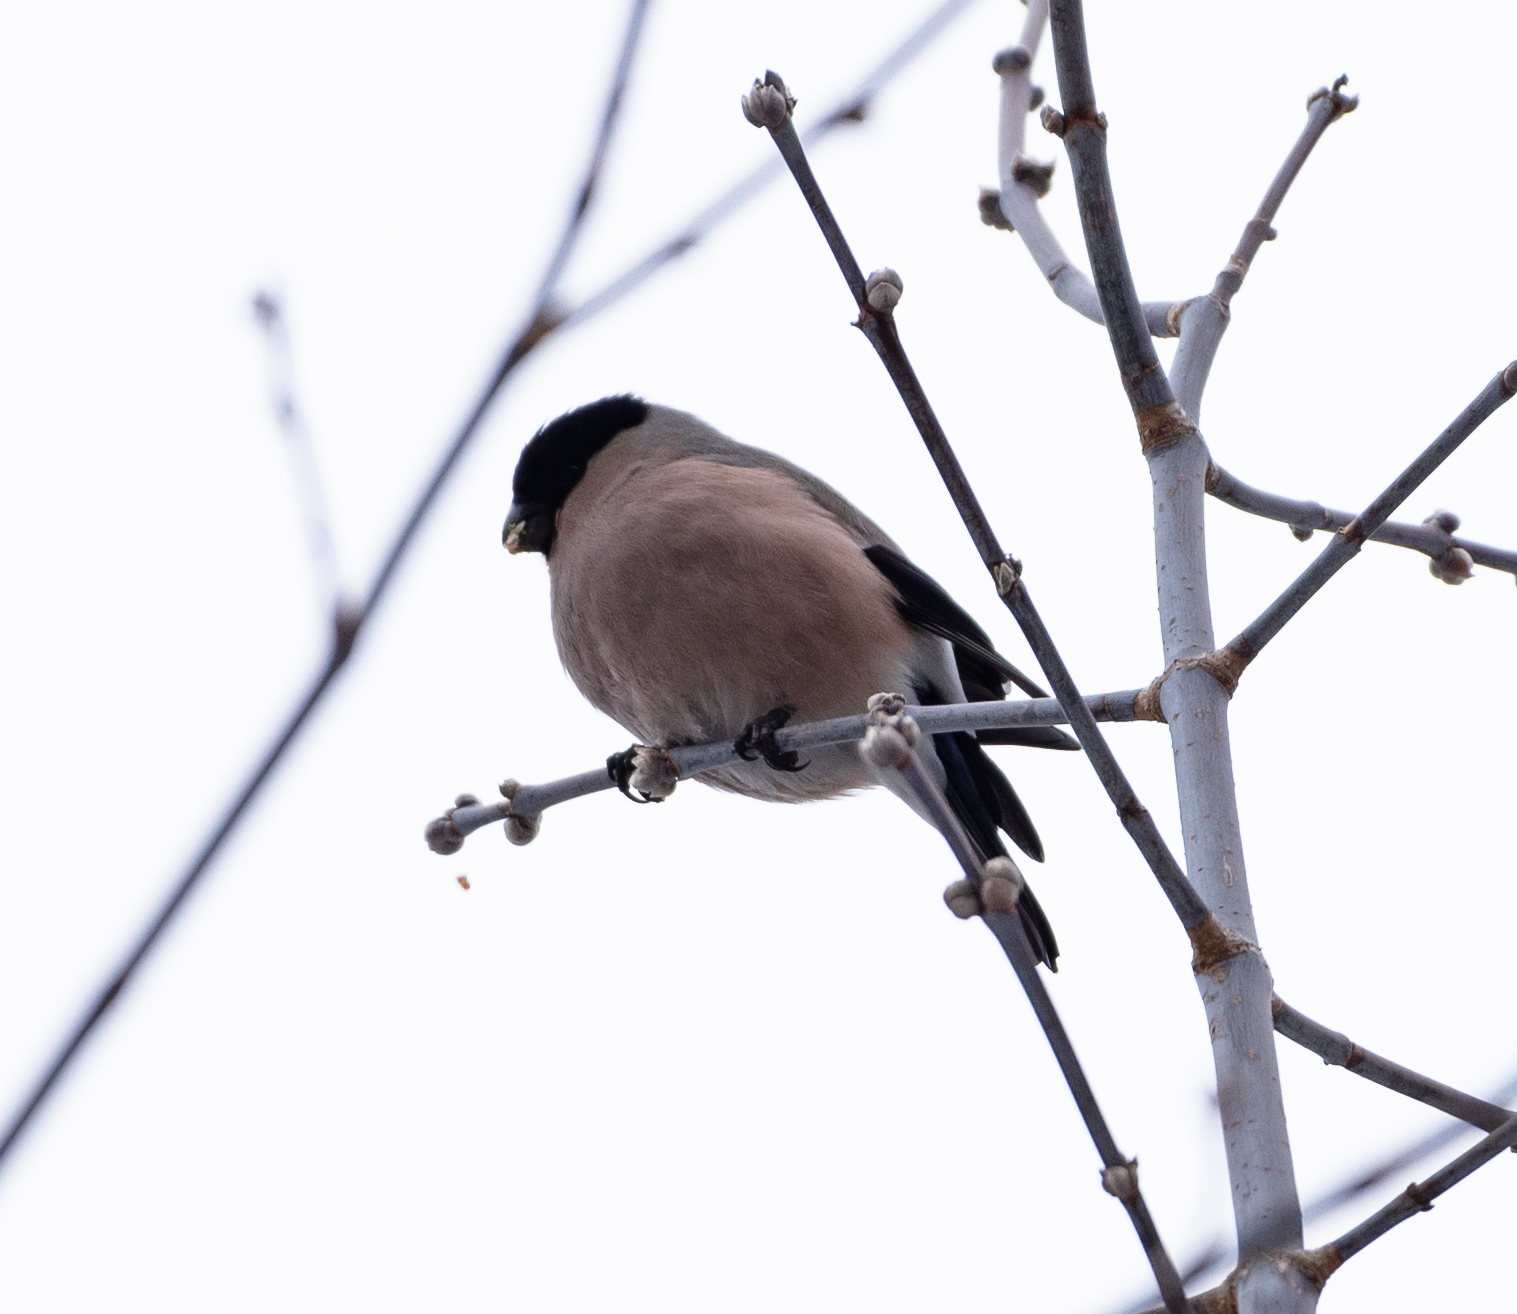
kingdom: Animalia
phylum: Chordata
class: Aves
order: Passeriformes
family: Fringillidae
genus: Pyrrhula
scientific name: Pyrrhula pyrrhula
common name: Eurasian bullfinch
